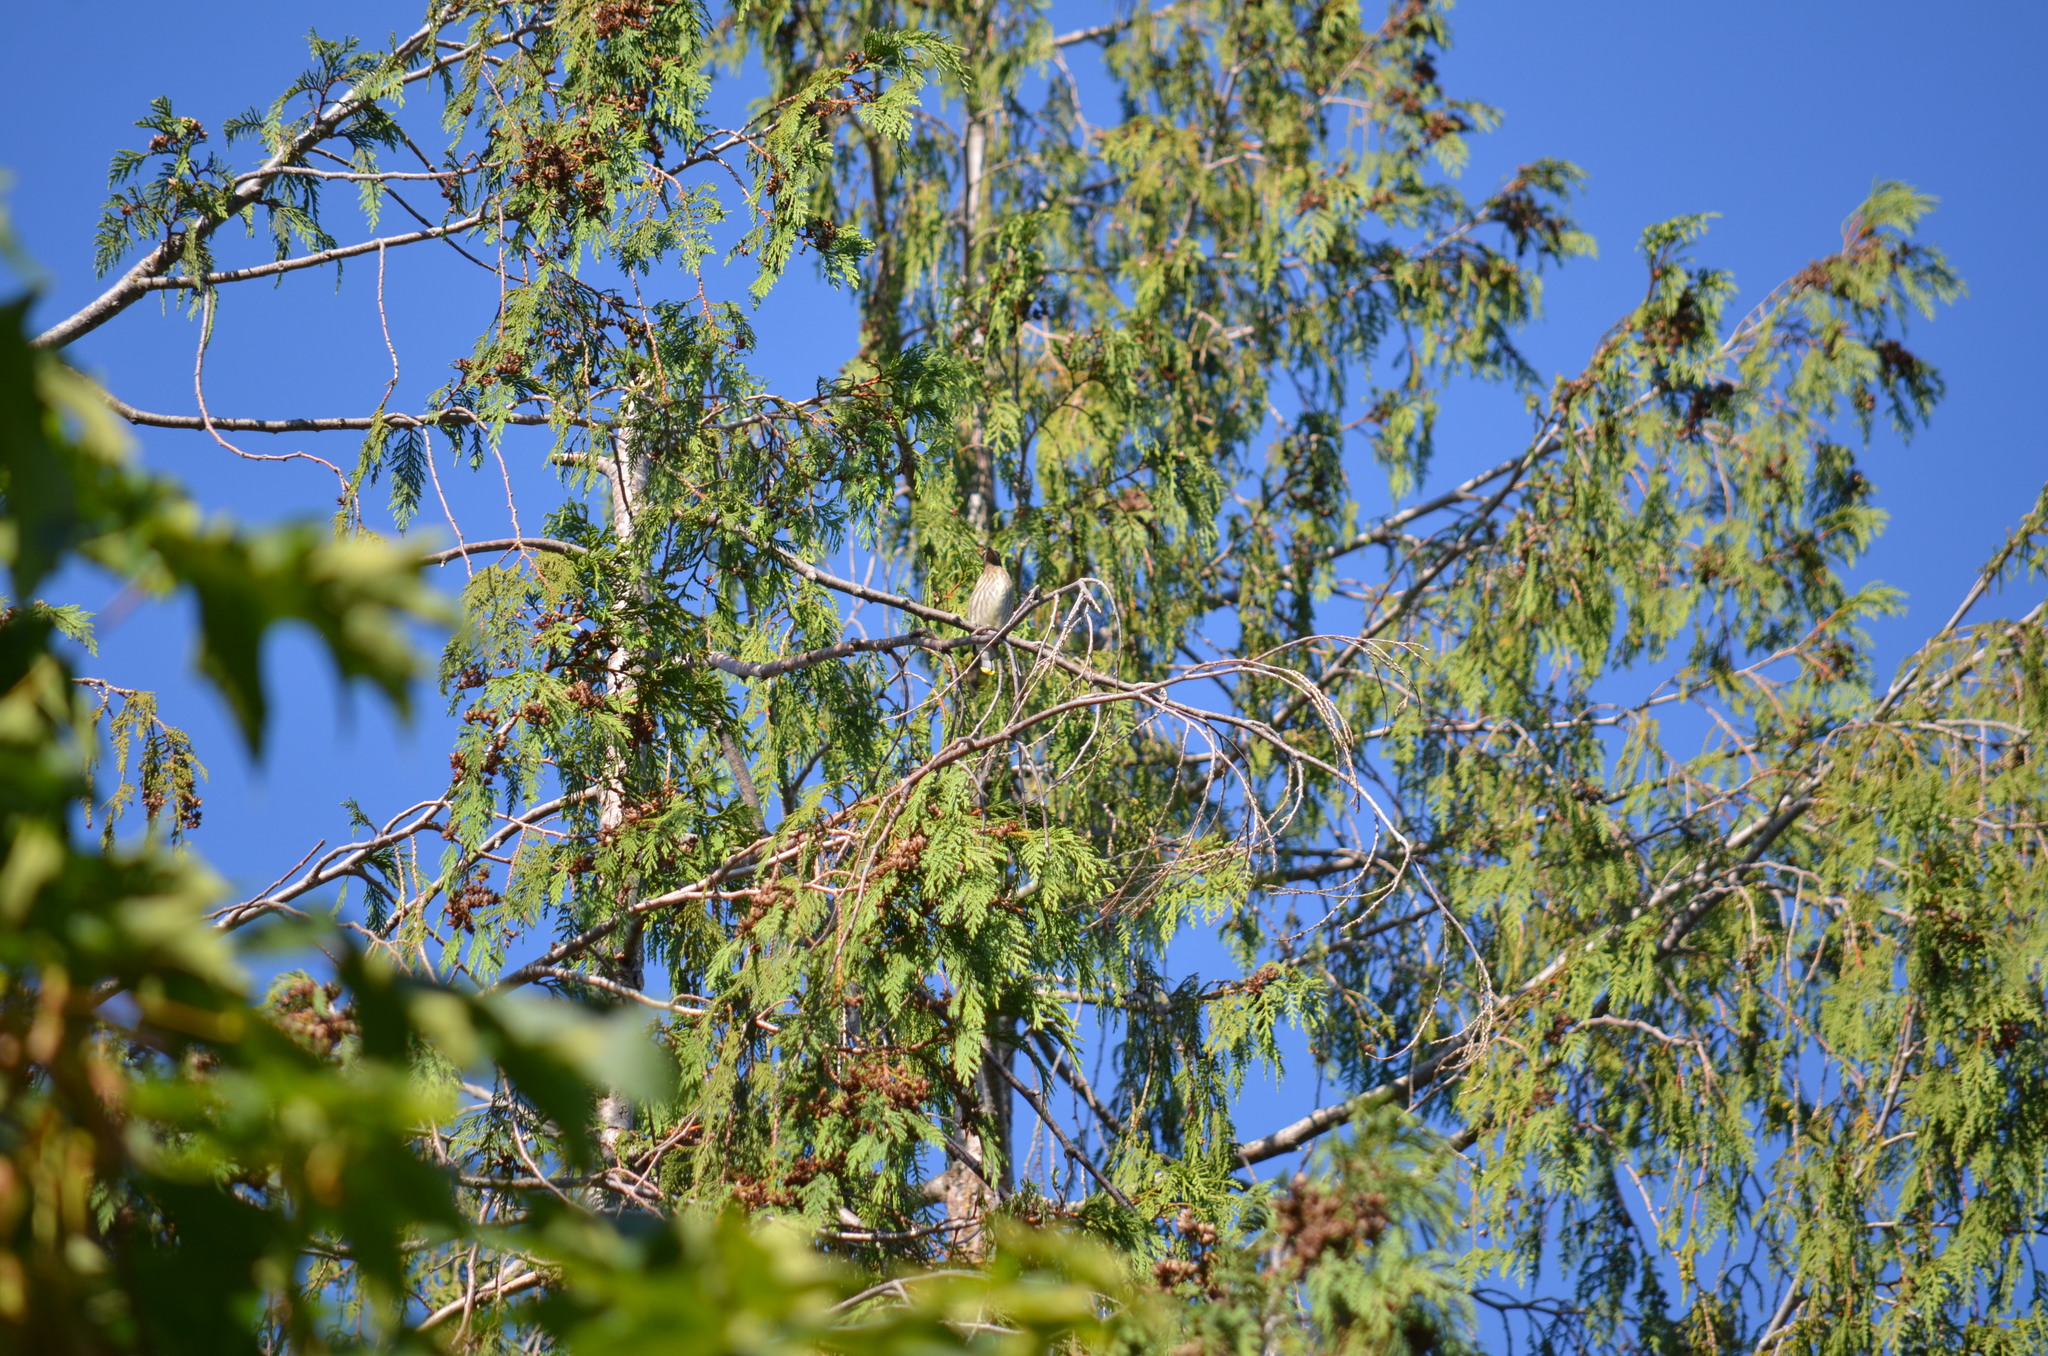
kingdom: Animalia
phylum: Chordata
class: Aves
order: Passeriformes
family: Bombycillidae
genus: Bombycilla
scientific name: Bombycilla cedrorum
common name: Cedar waxwing
